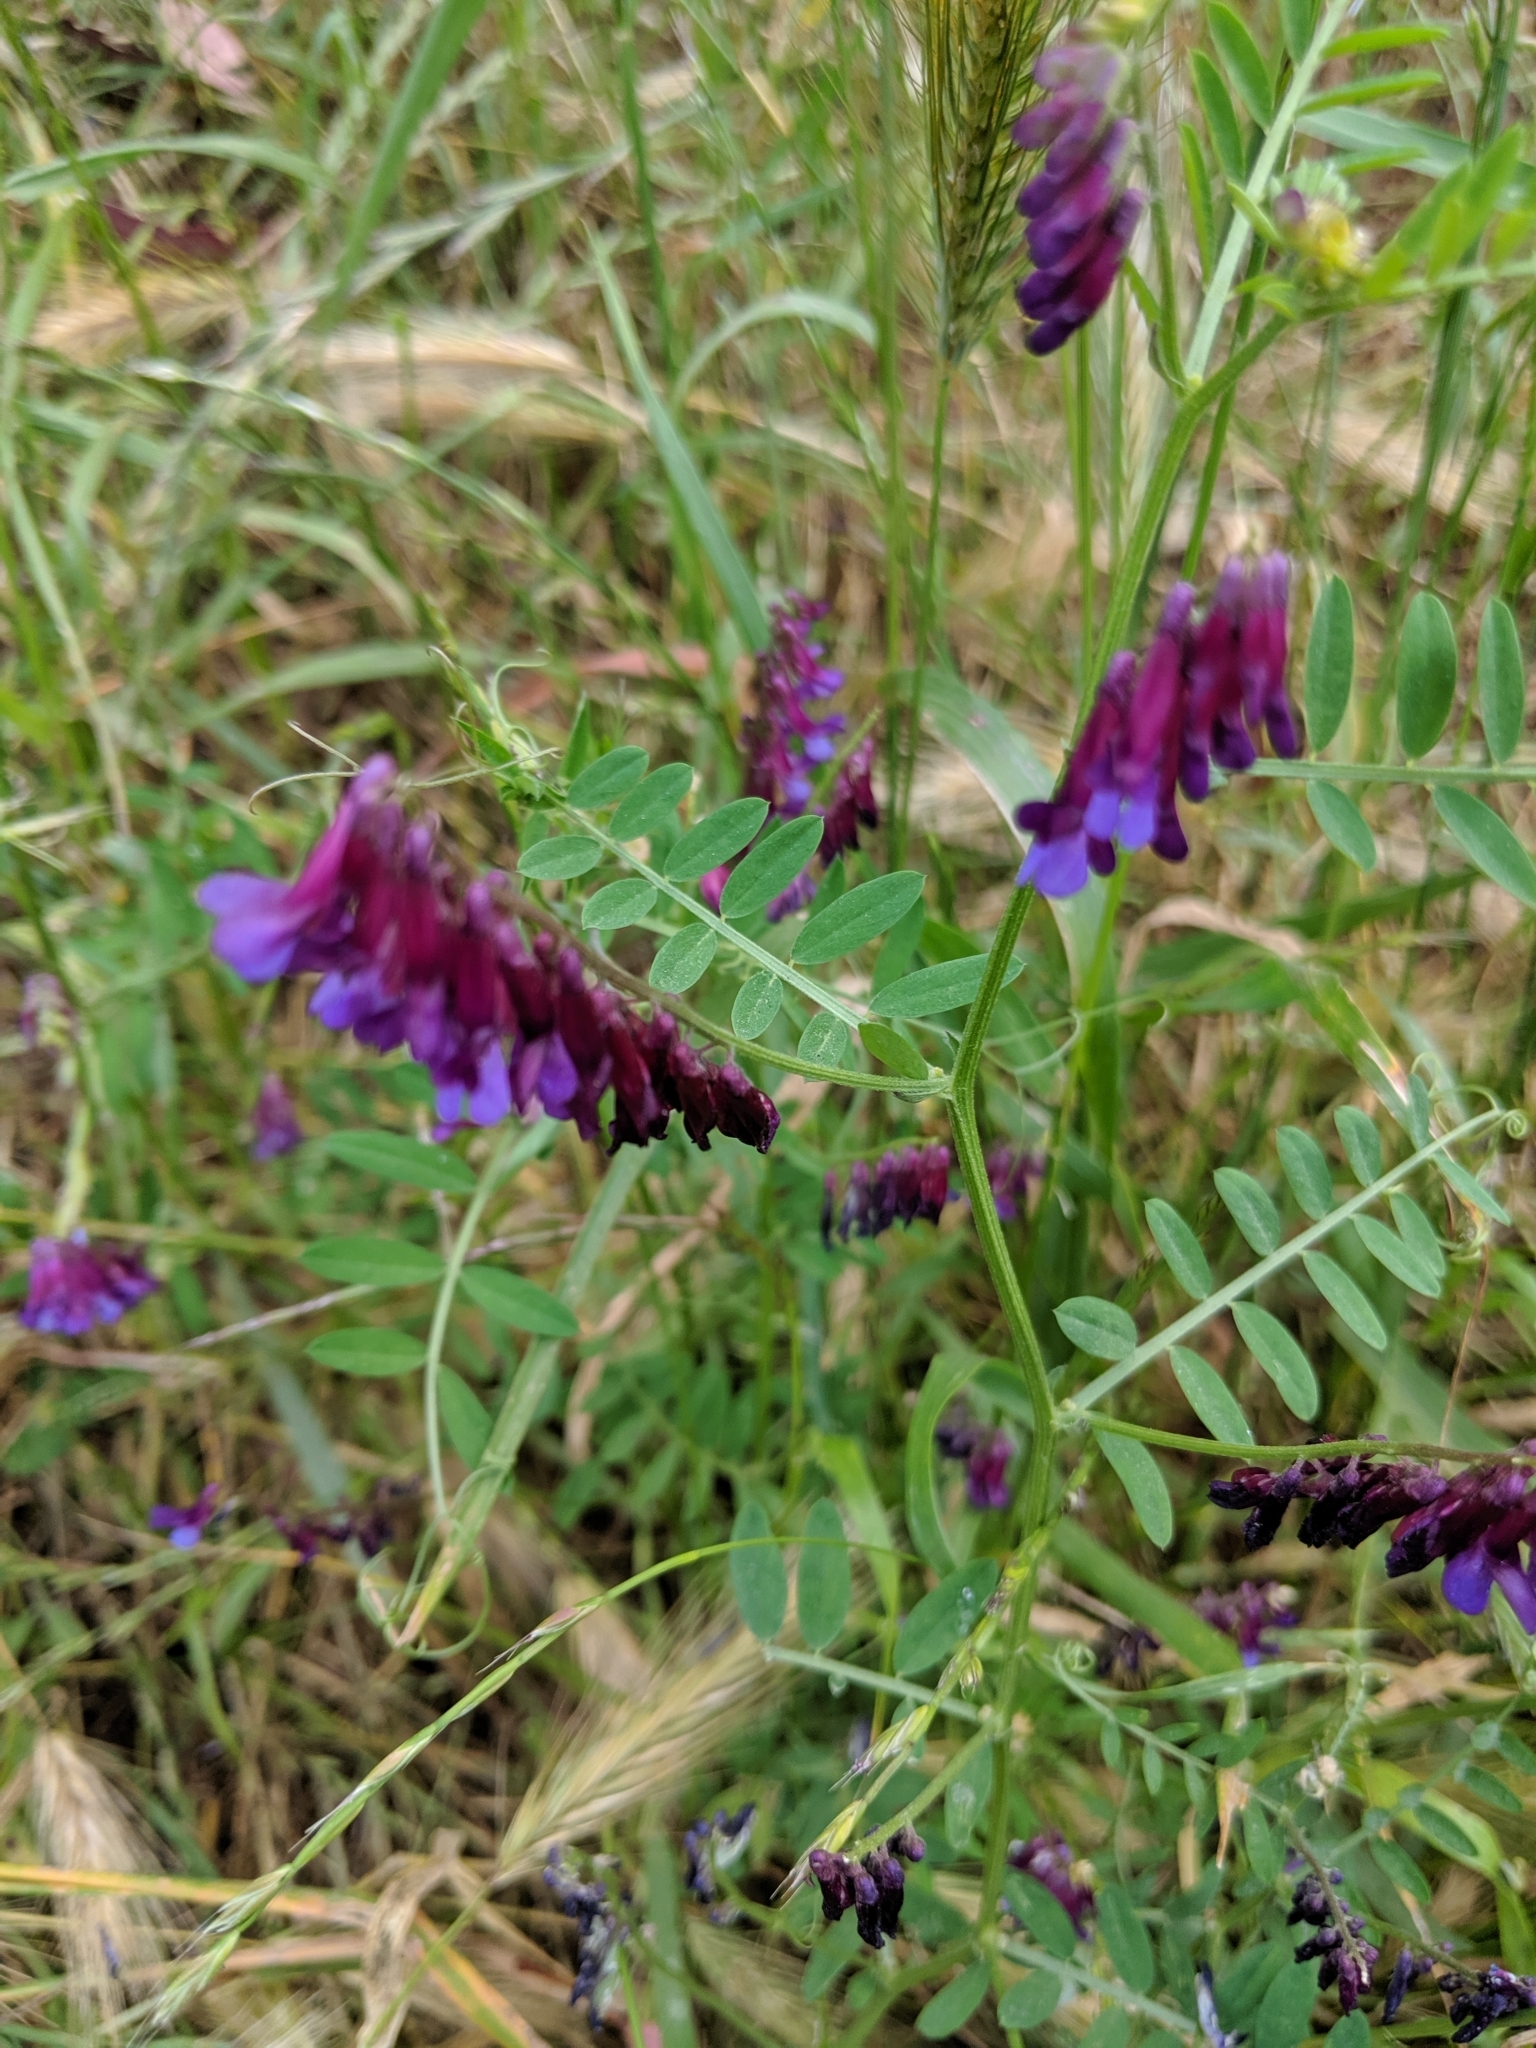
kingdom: Plantae
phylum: Tracheophyta
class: Magnoliopsida
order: Fabales
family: Fabaceae
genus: Vicia
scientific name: Vicia villosa
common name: Fodder vetch
